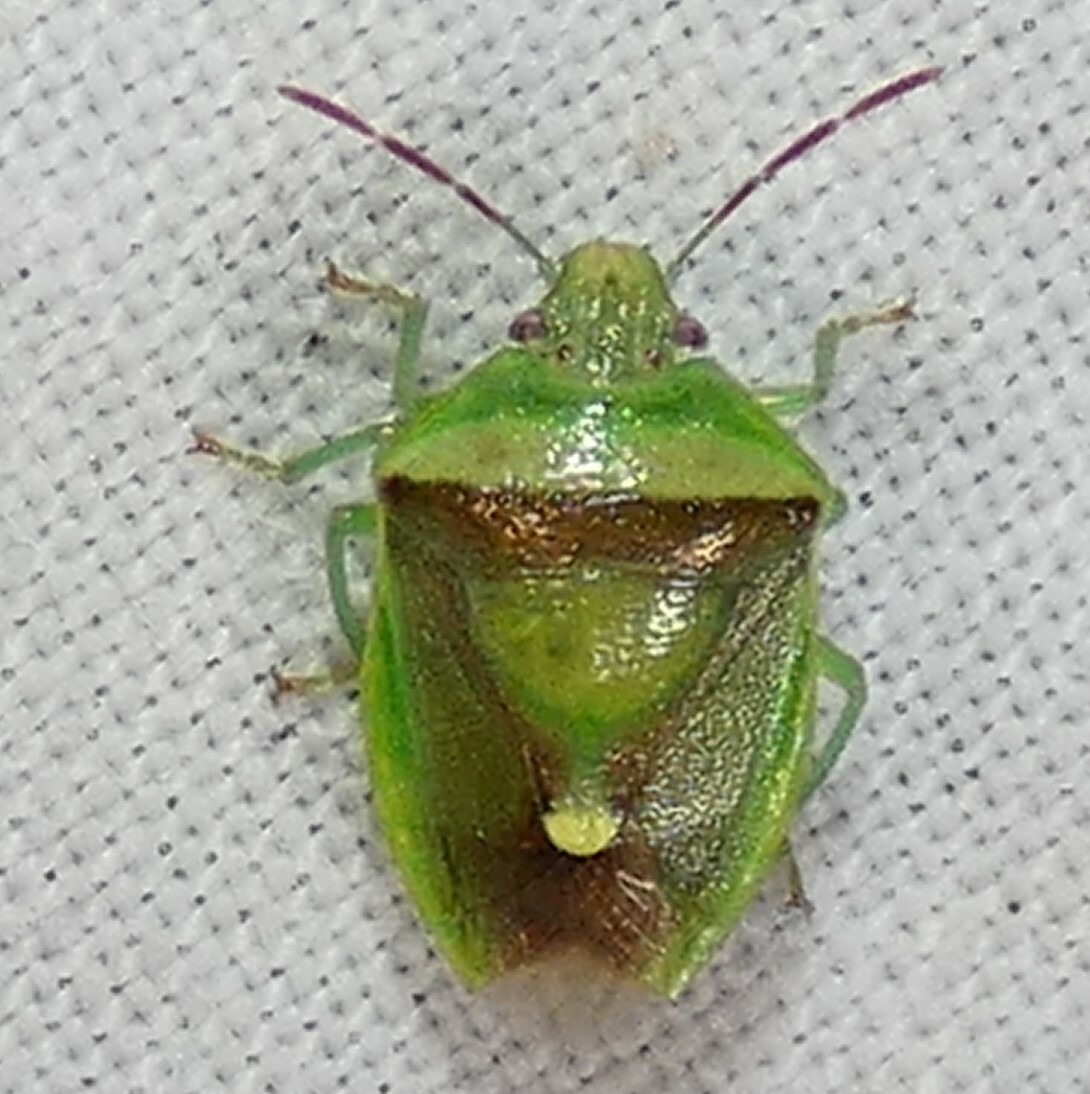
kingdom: Animalia
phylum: Arthropoda
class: Insecta
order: Hemiptera
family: Pentatomidae
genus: Banasa
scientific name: Banasa dimidiata
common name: Green burgundy stink bug
